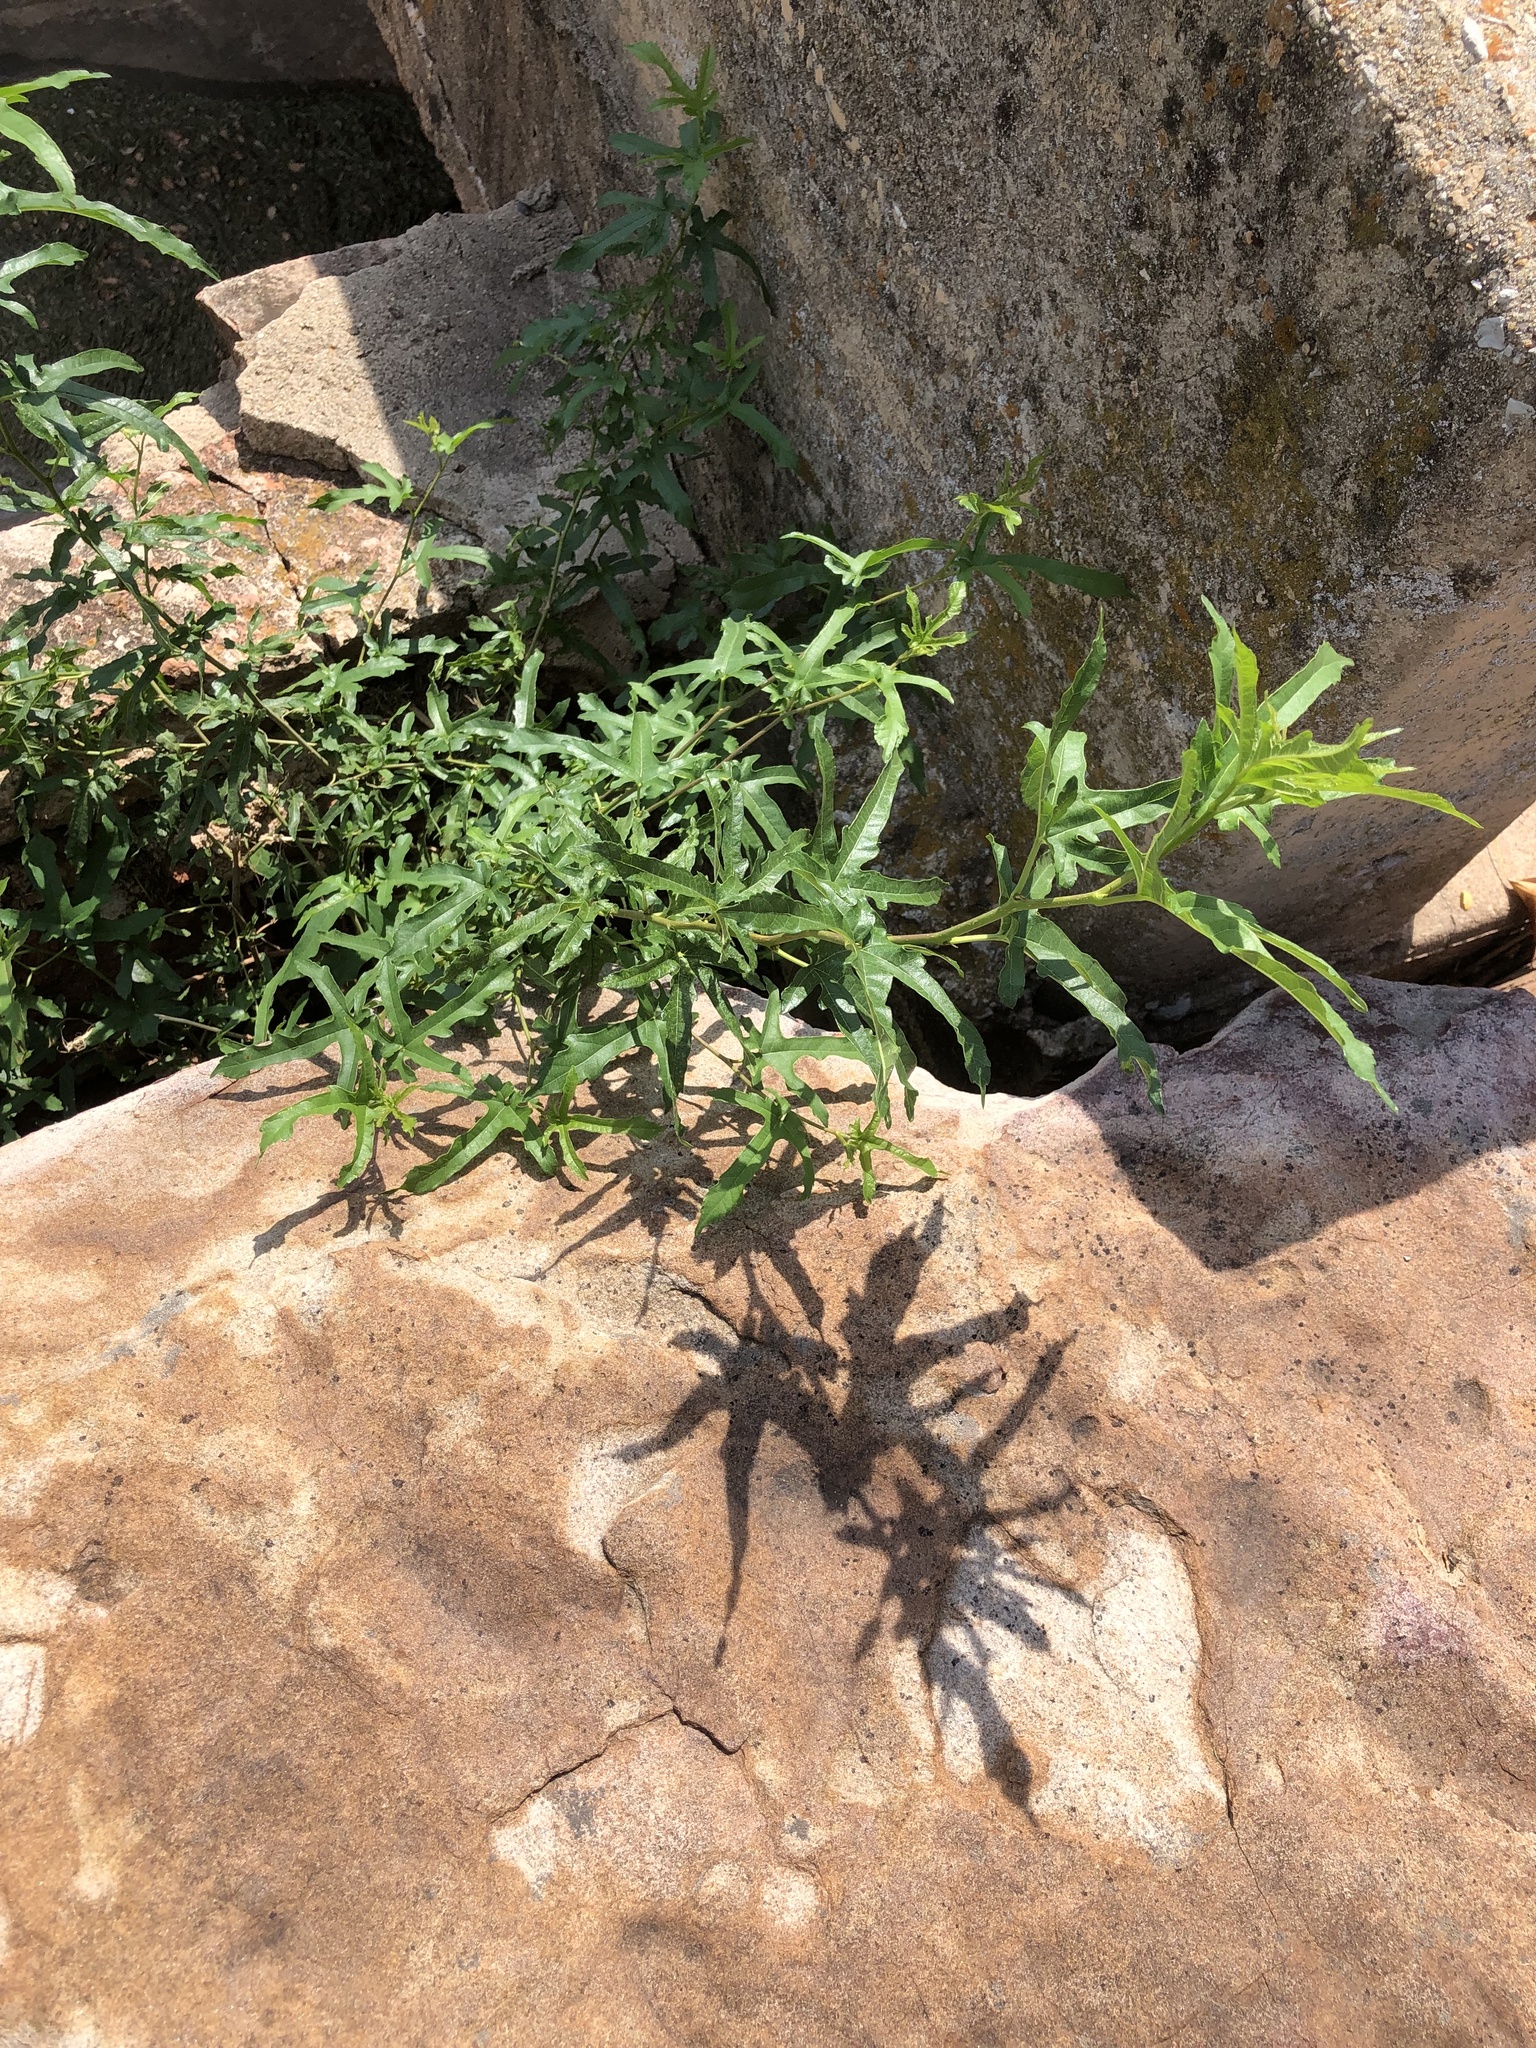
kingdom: Plantae
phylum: Tracheophyta
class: Magnoliopsida
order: Rosales
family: Moraceae
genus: Morus
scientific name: Morus alba
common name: White mulberry
